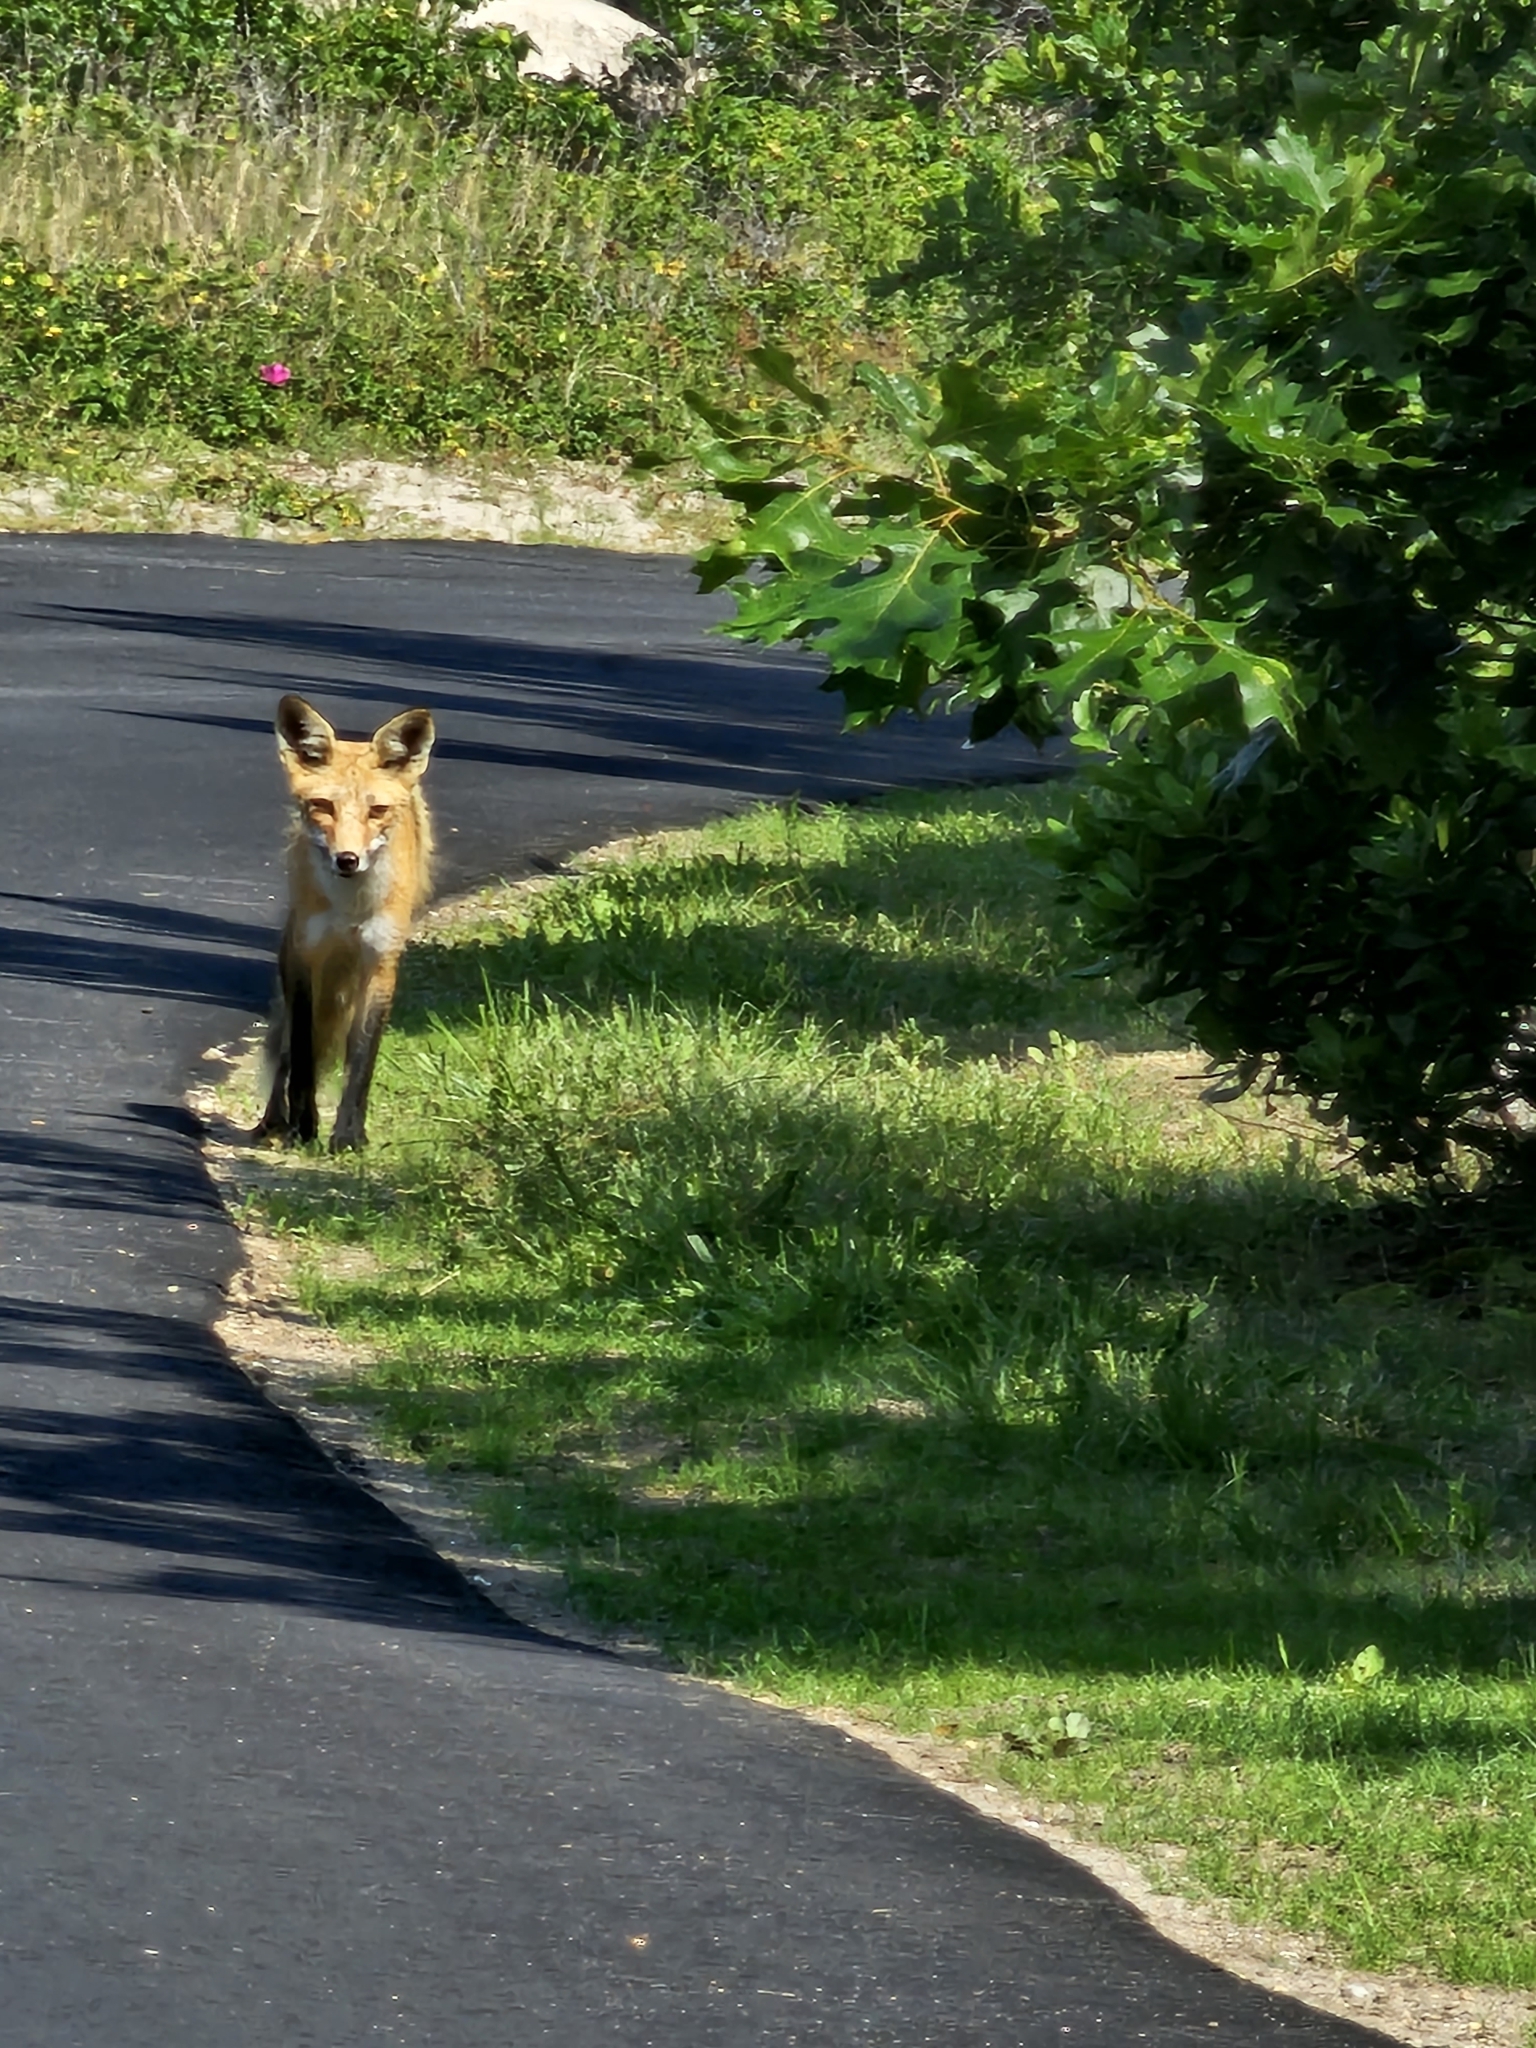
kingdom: Animalia
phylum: Chordata
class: Mammalia
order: Carnivora
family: Canidae
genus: Vulpes
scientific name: Vulpes vulpes
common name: Red fox
